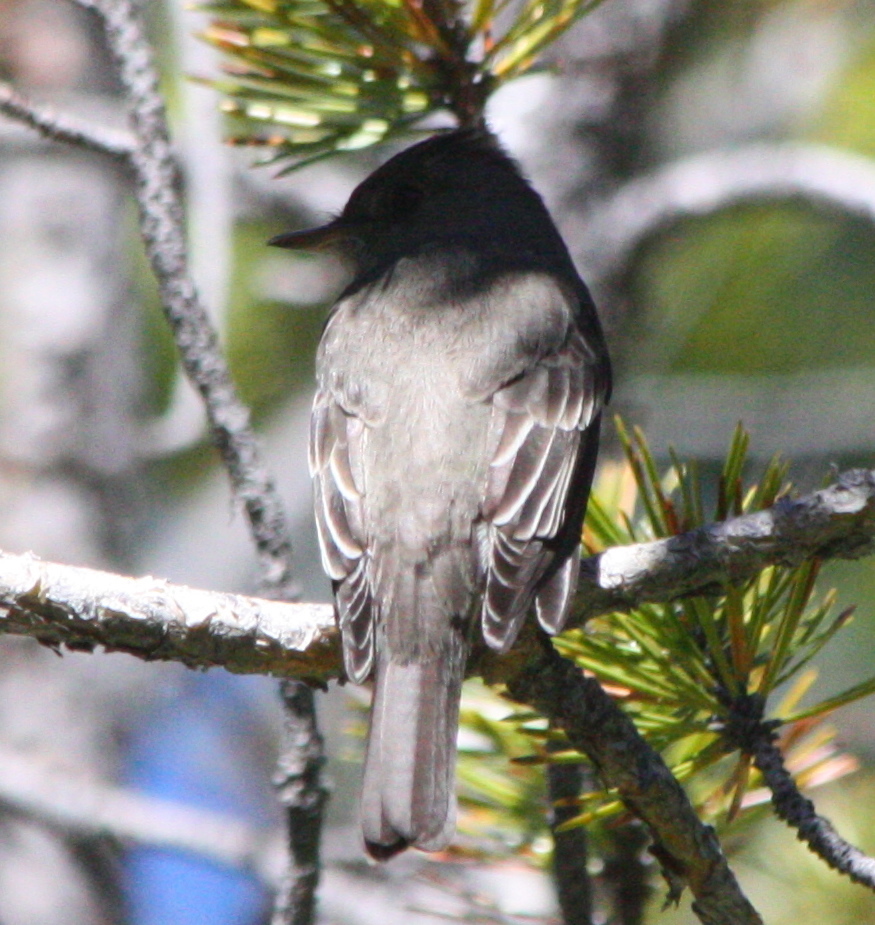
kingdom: Animalia
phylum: Chordata
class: Aves
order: Passeriformes
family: Tyrannidae
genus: Contopus
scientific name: Contopus sordidulus
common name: Western wood-pewee
